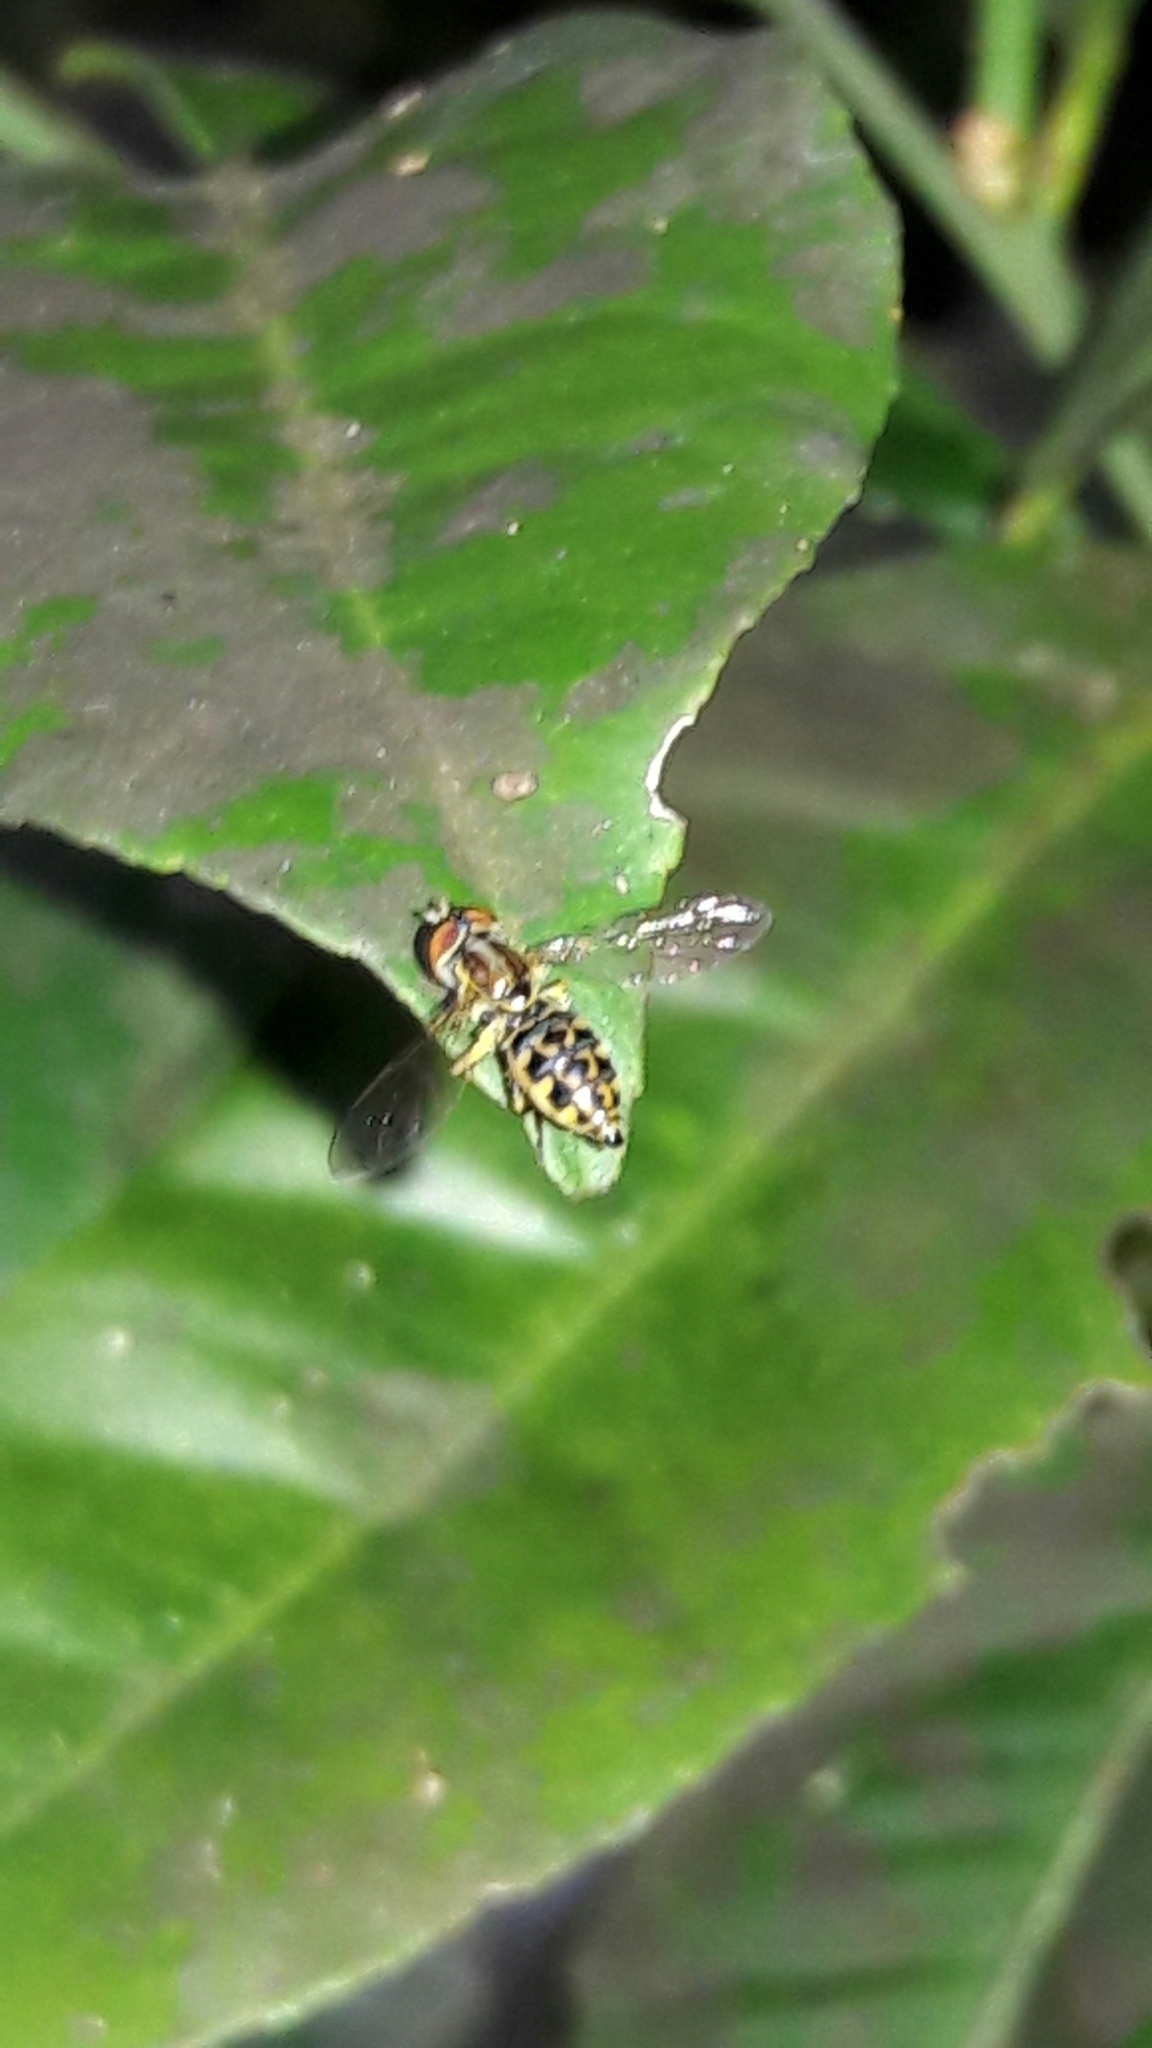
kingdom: Animalia
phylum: Arthropoda
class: Insecta
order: Diptera
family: Syrphidae
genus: Toxomerus
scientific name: Toxomerus virgulatus
